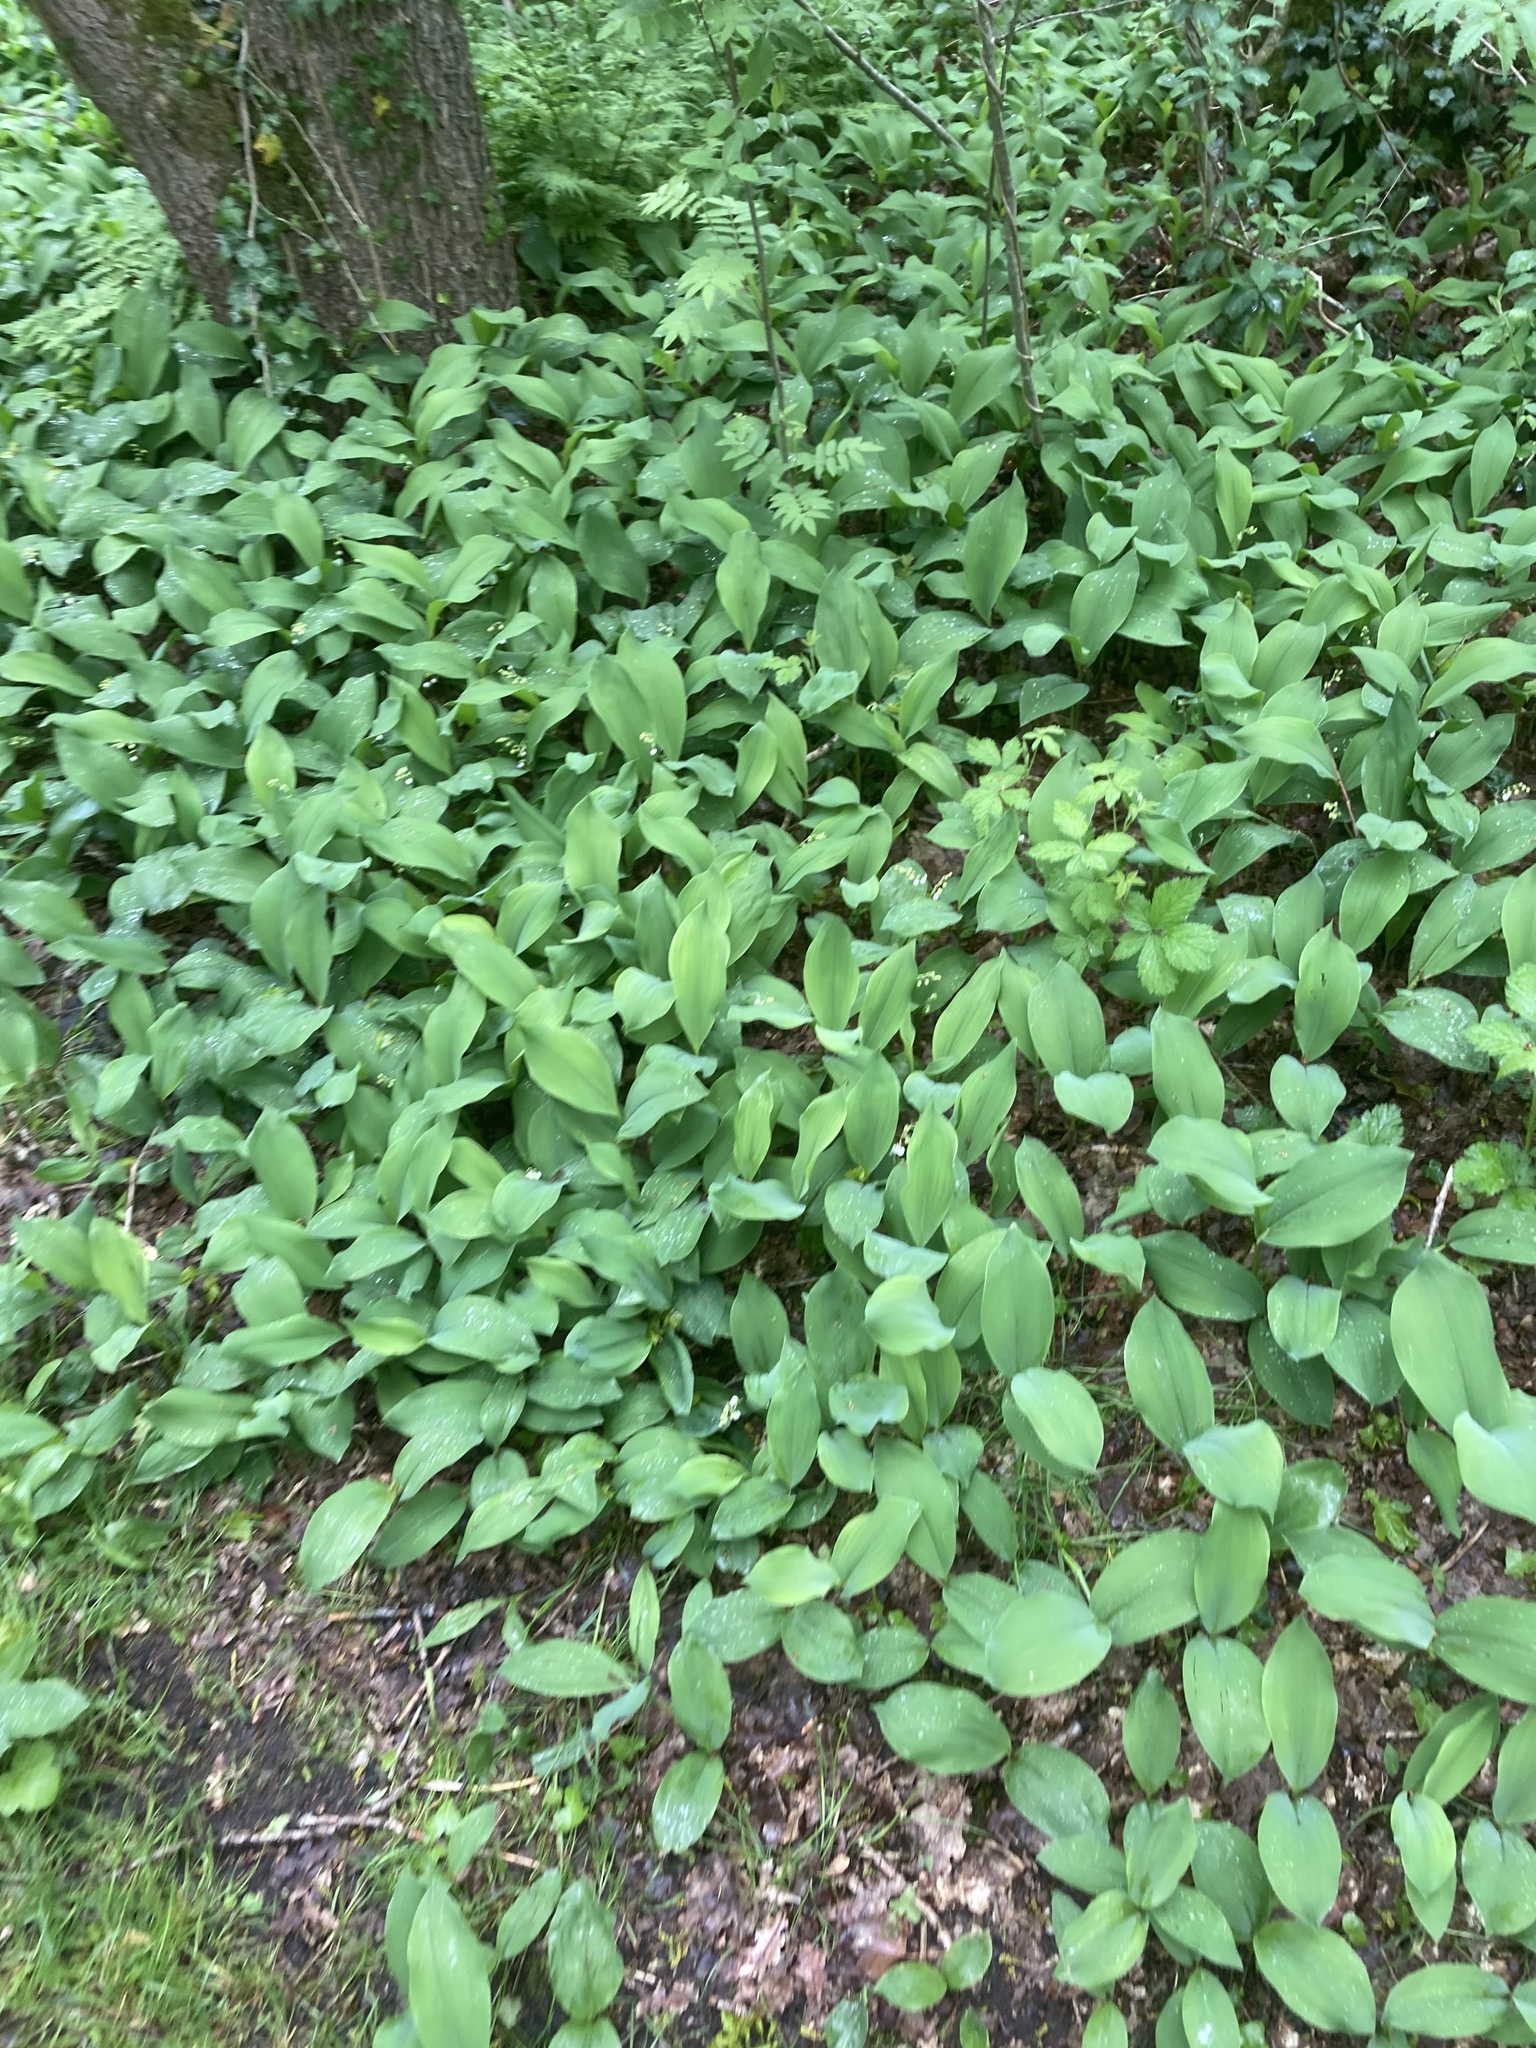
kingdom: Plantae
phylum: Tracheophyta
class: Liliopsida
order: Asparagales
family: Asparagaceae
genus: Convallaria
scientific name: Convallaria majalis
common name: Lily-of-the-valley
